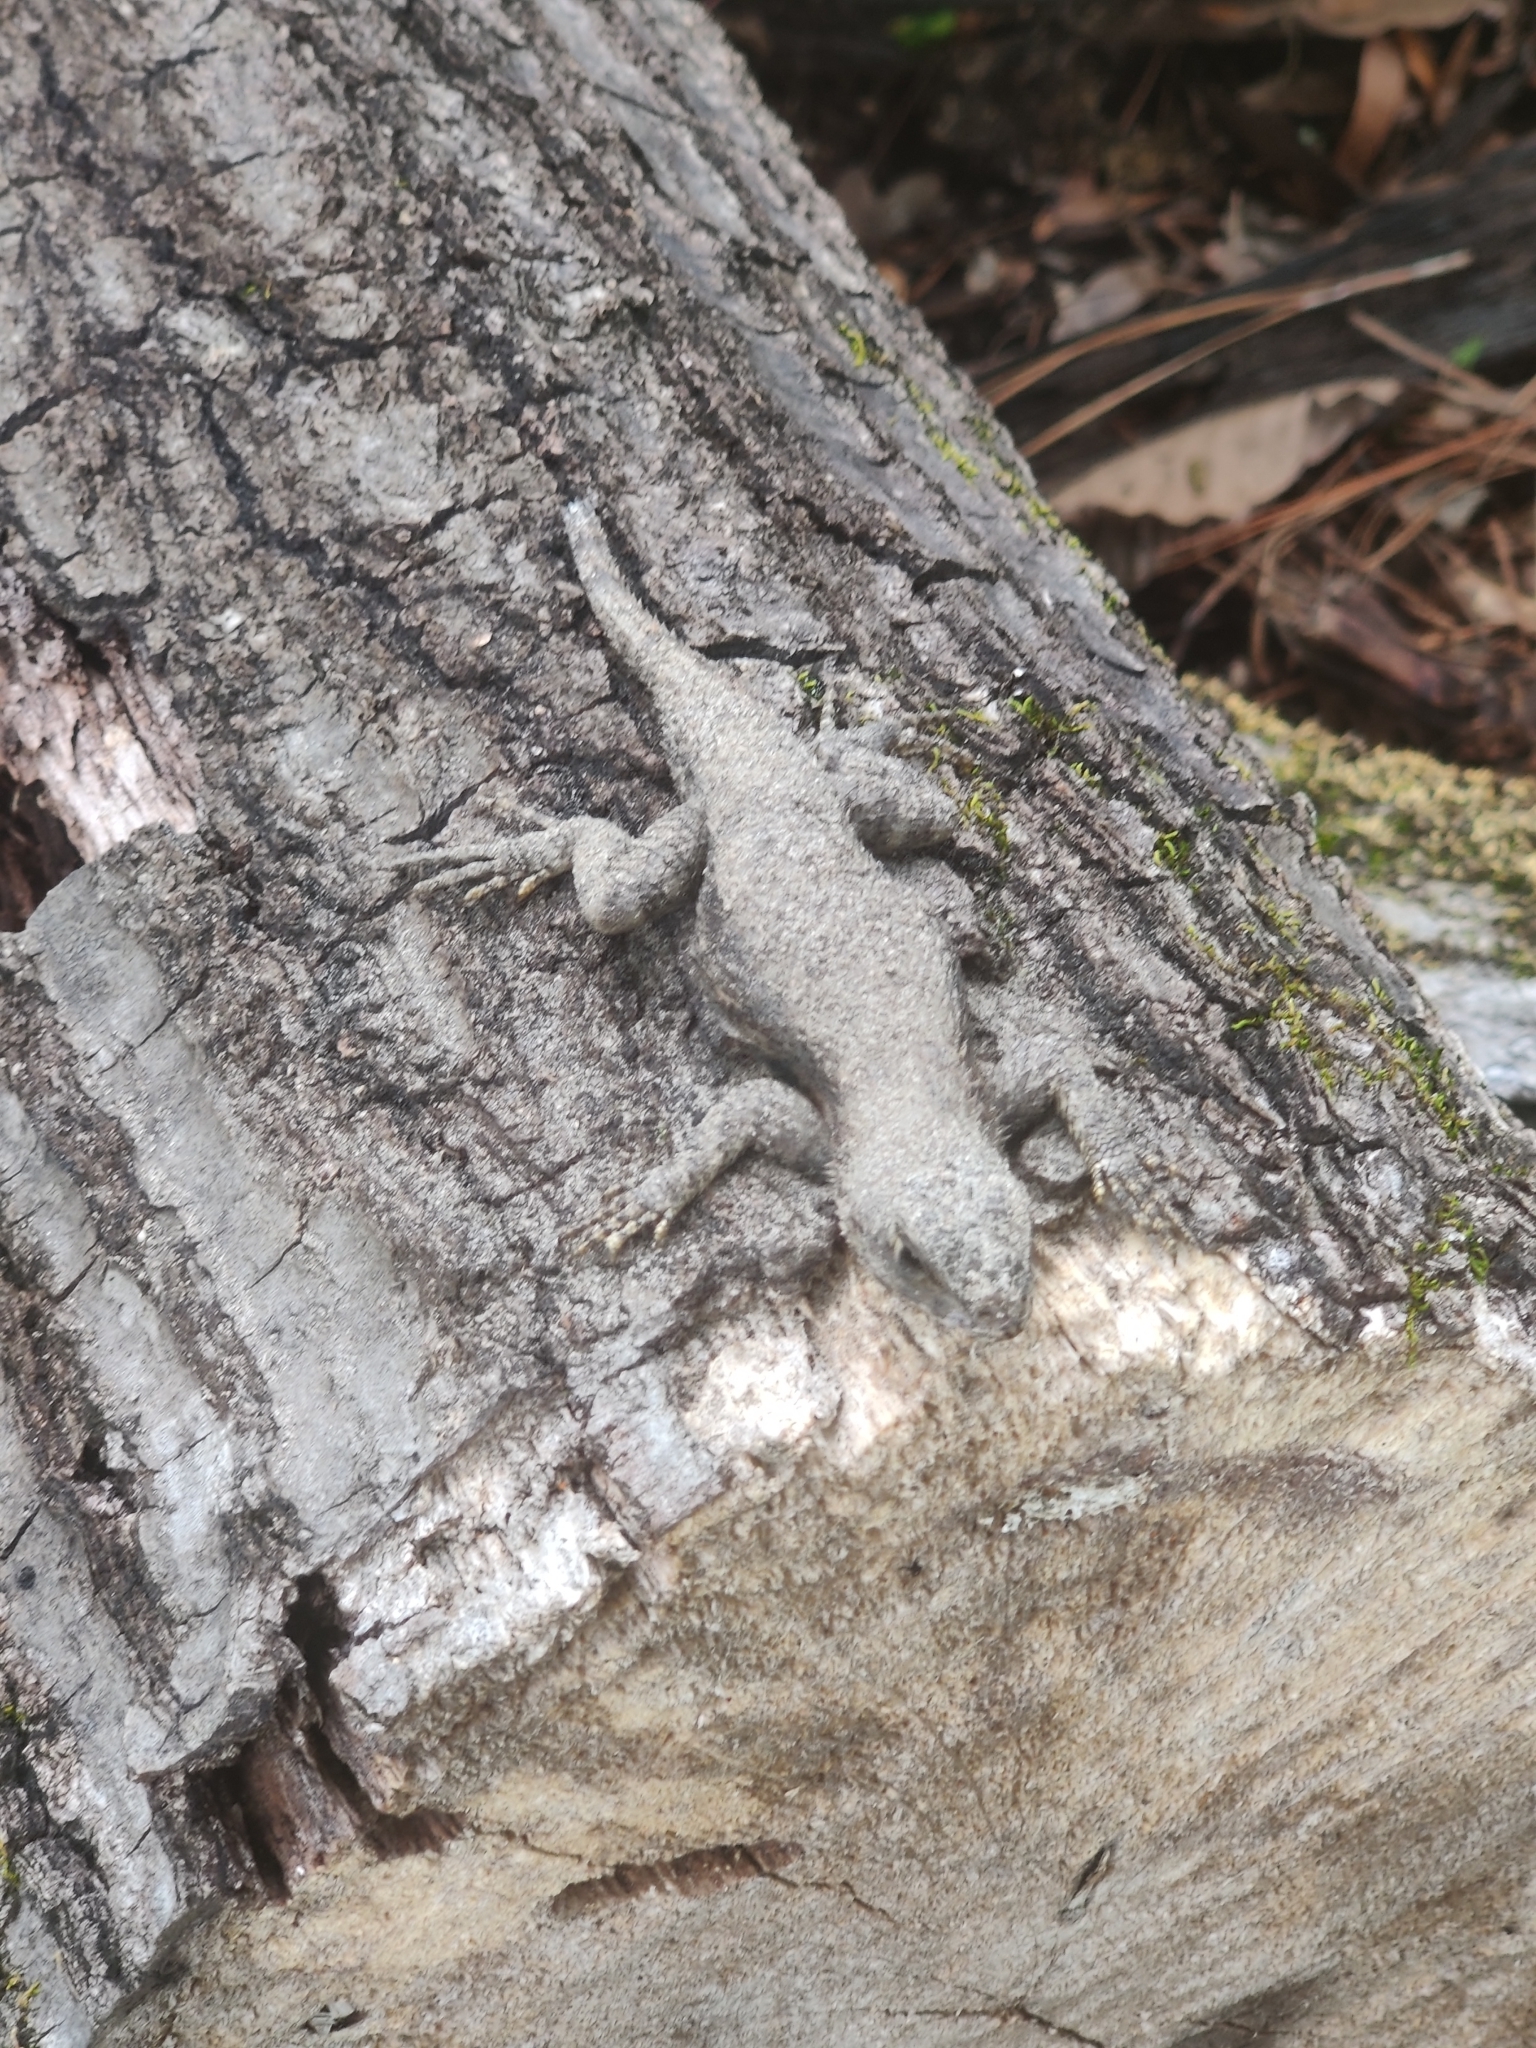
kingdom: Animalia
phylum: Chordata
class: Squamata
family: Phrynosomatidae
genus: Sceloporus
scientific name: Sceloporus undulatus
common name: Eastern fence lizard
